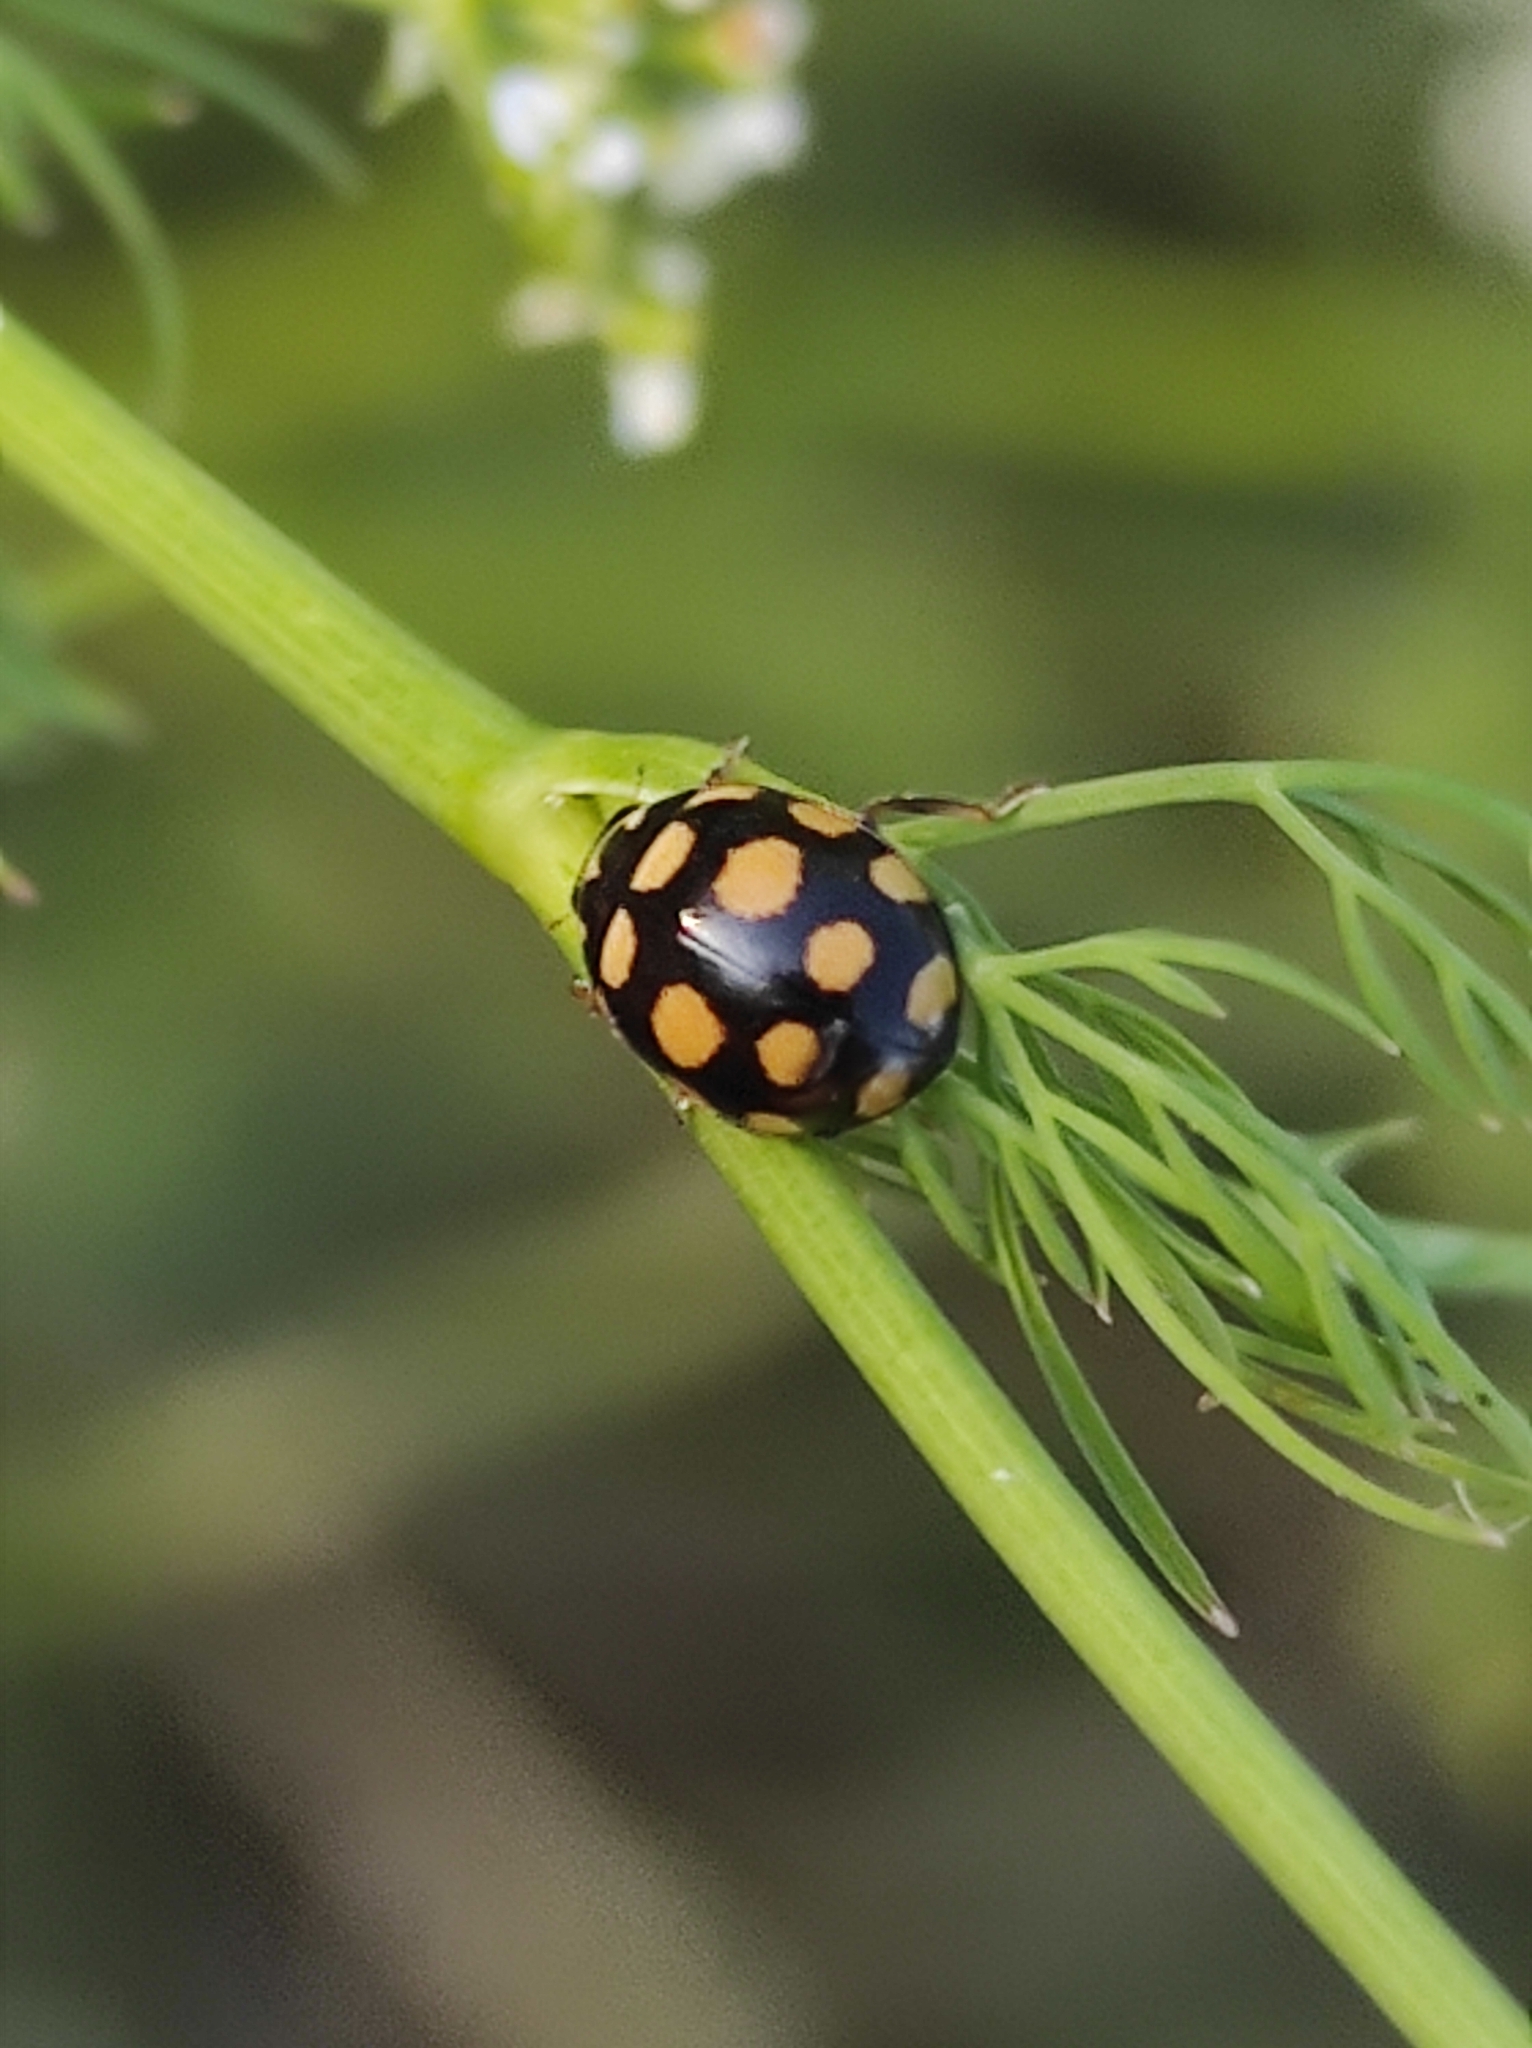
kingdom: Animalia
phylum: Arthropoda
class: Insecta
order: Coleoptera
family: Coccinellidae
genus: Coccinula
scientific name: Coccinula quatuordecimpustulata
